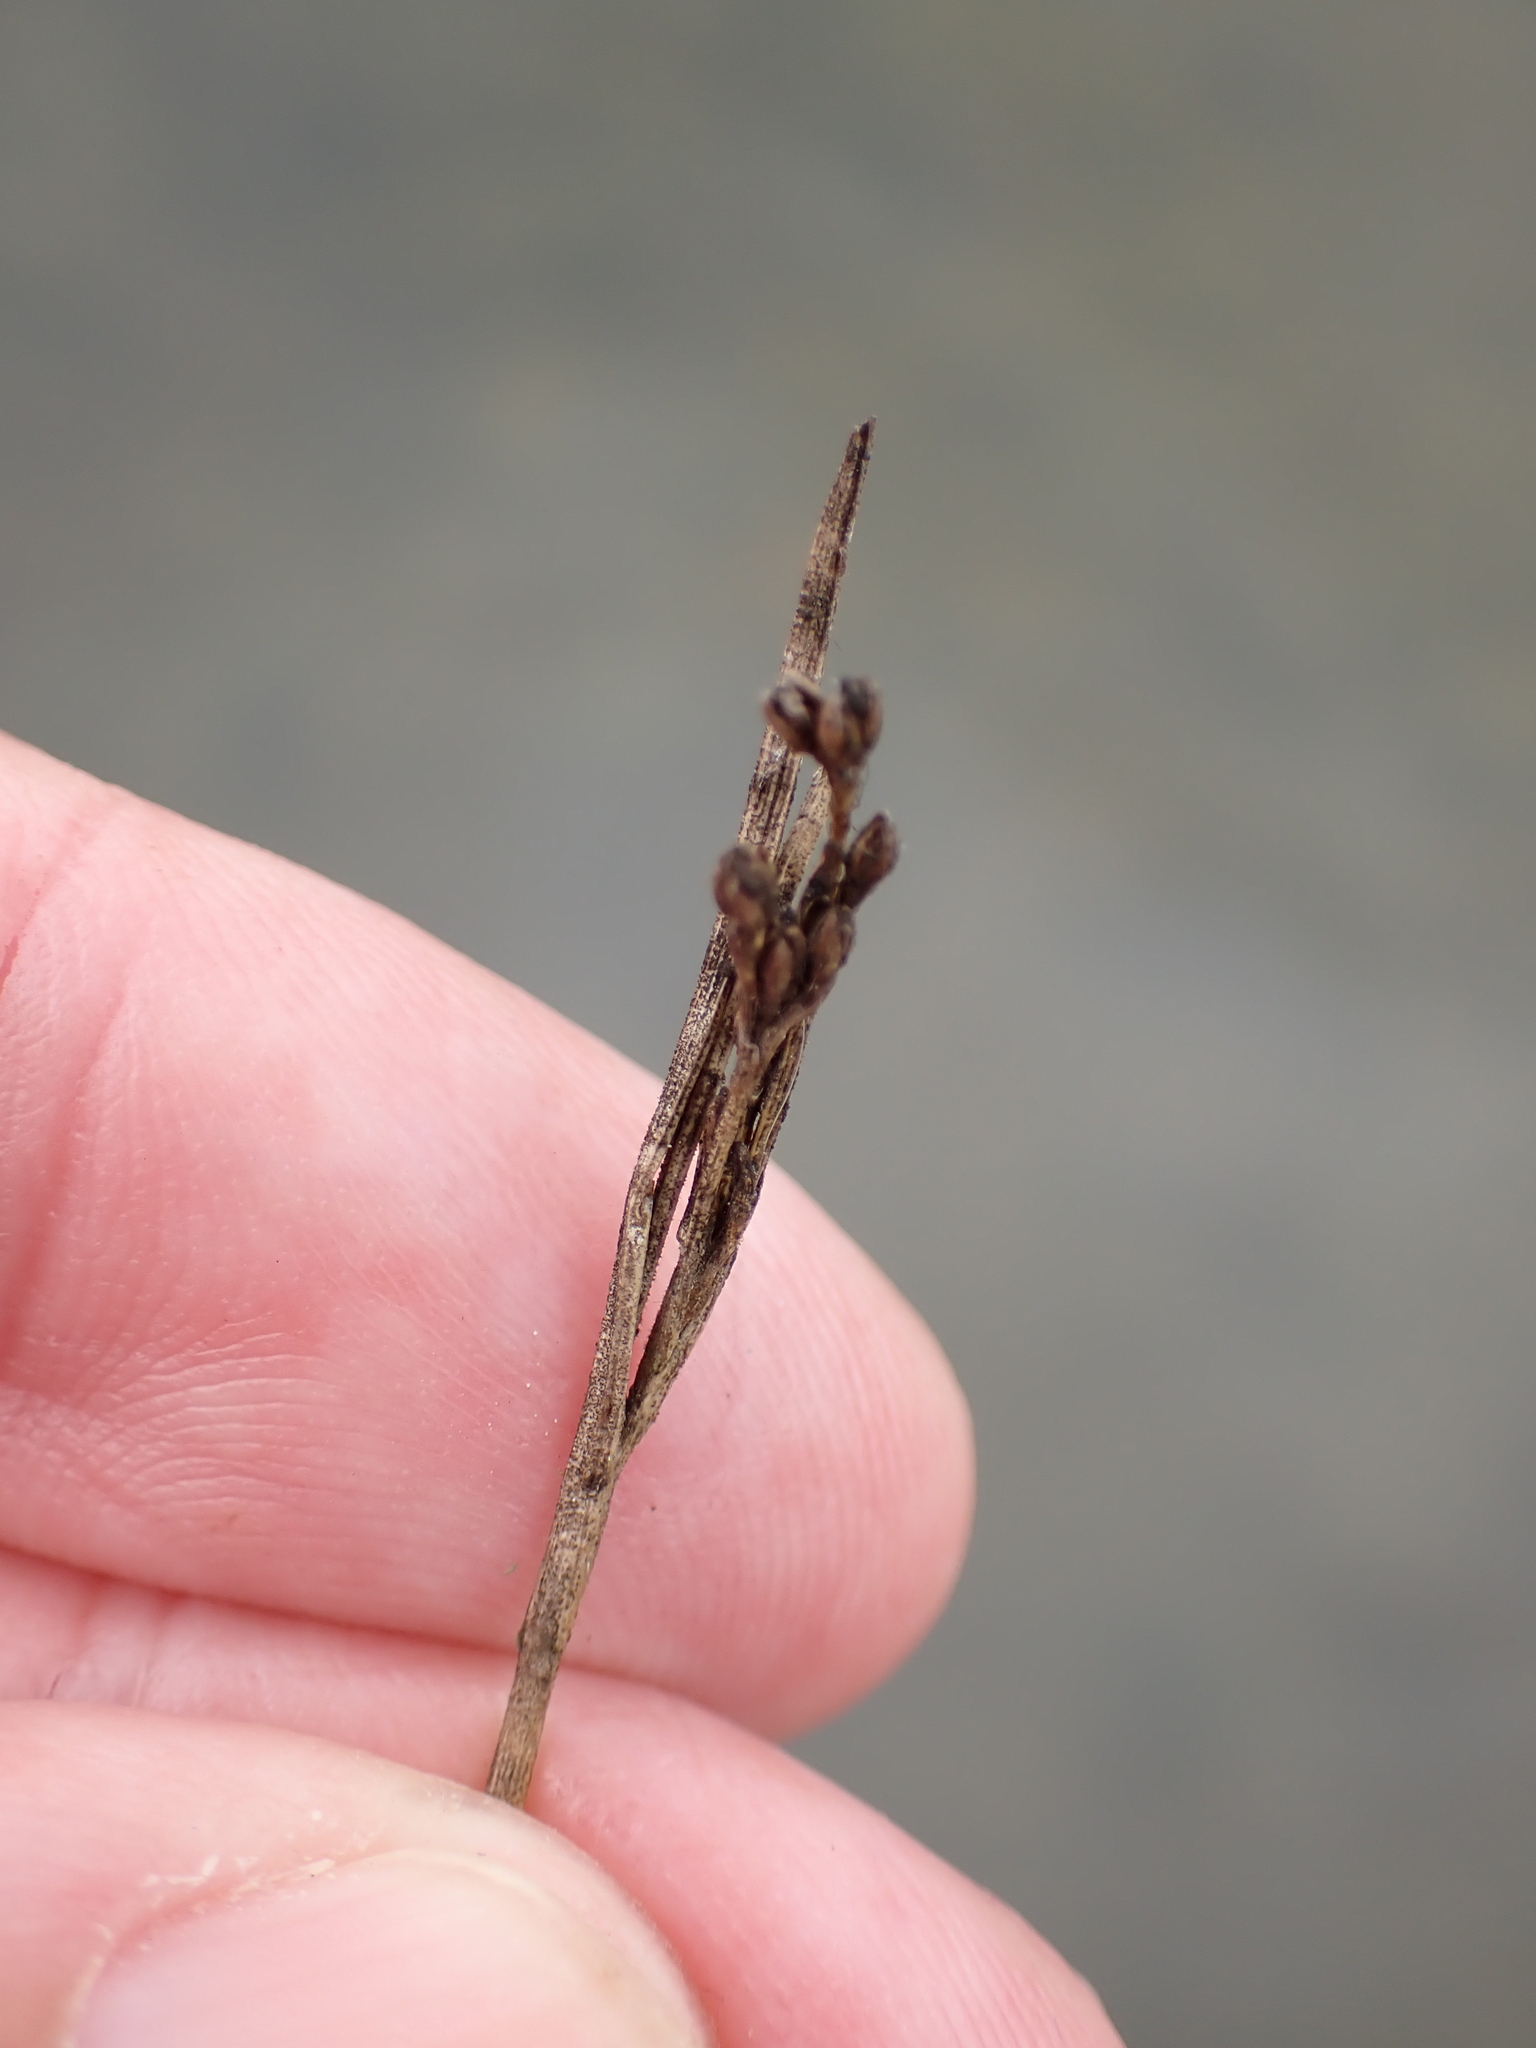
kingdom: Plantae
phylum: Tracheophyta
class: Liliopsida
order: Poales
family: Juncaceae
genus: Juncus
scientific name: Juncus gerardi
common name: Saltmarsh rush
